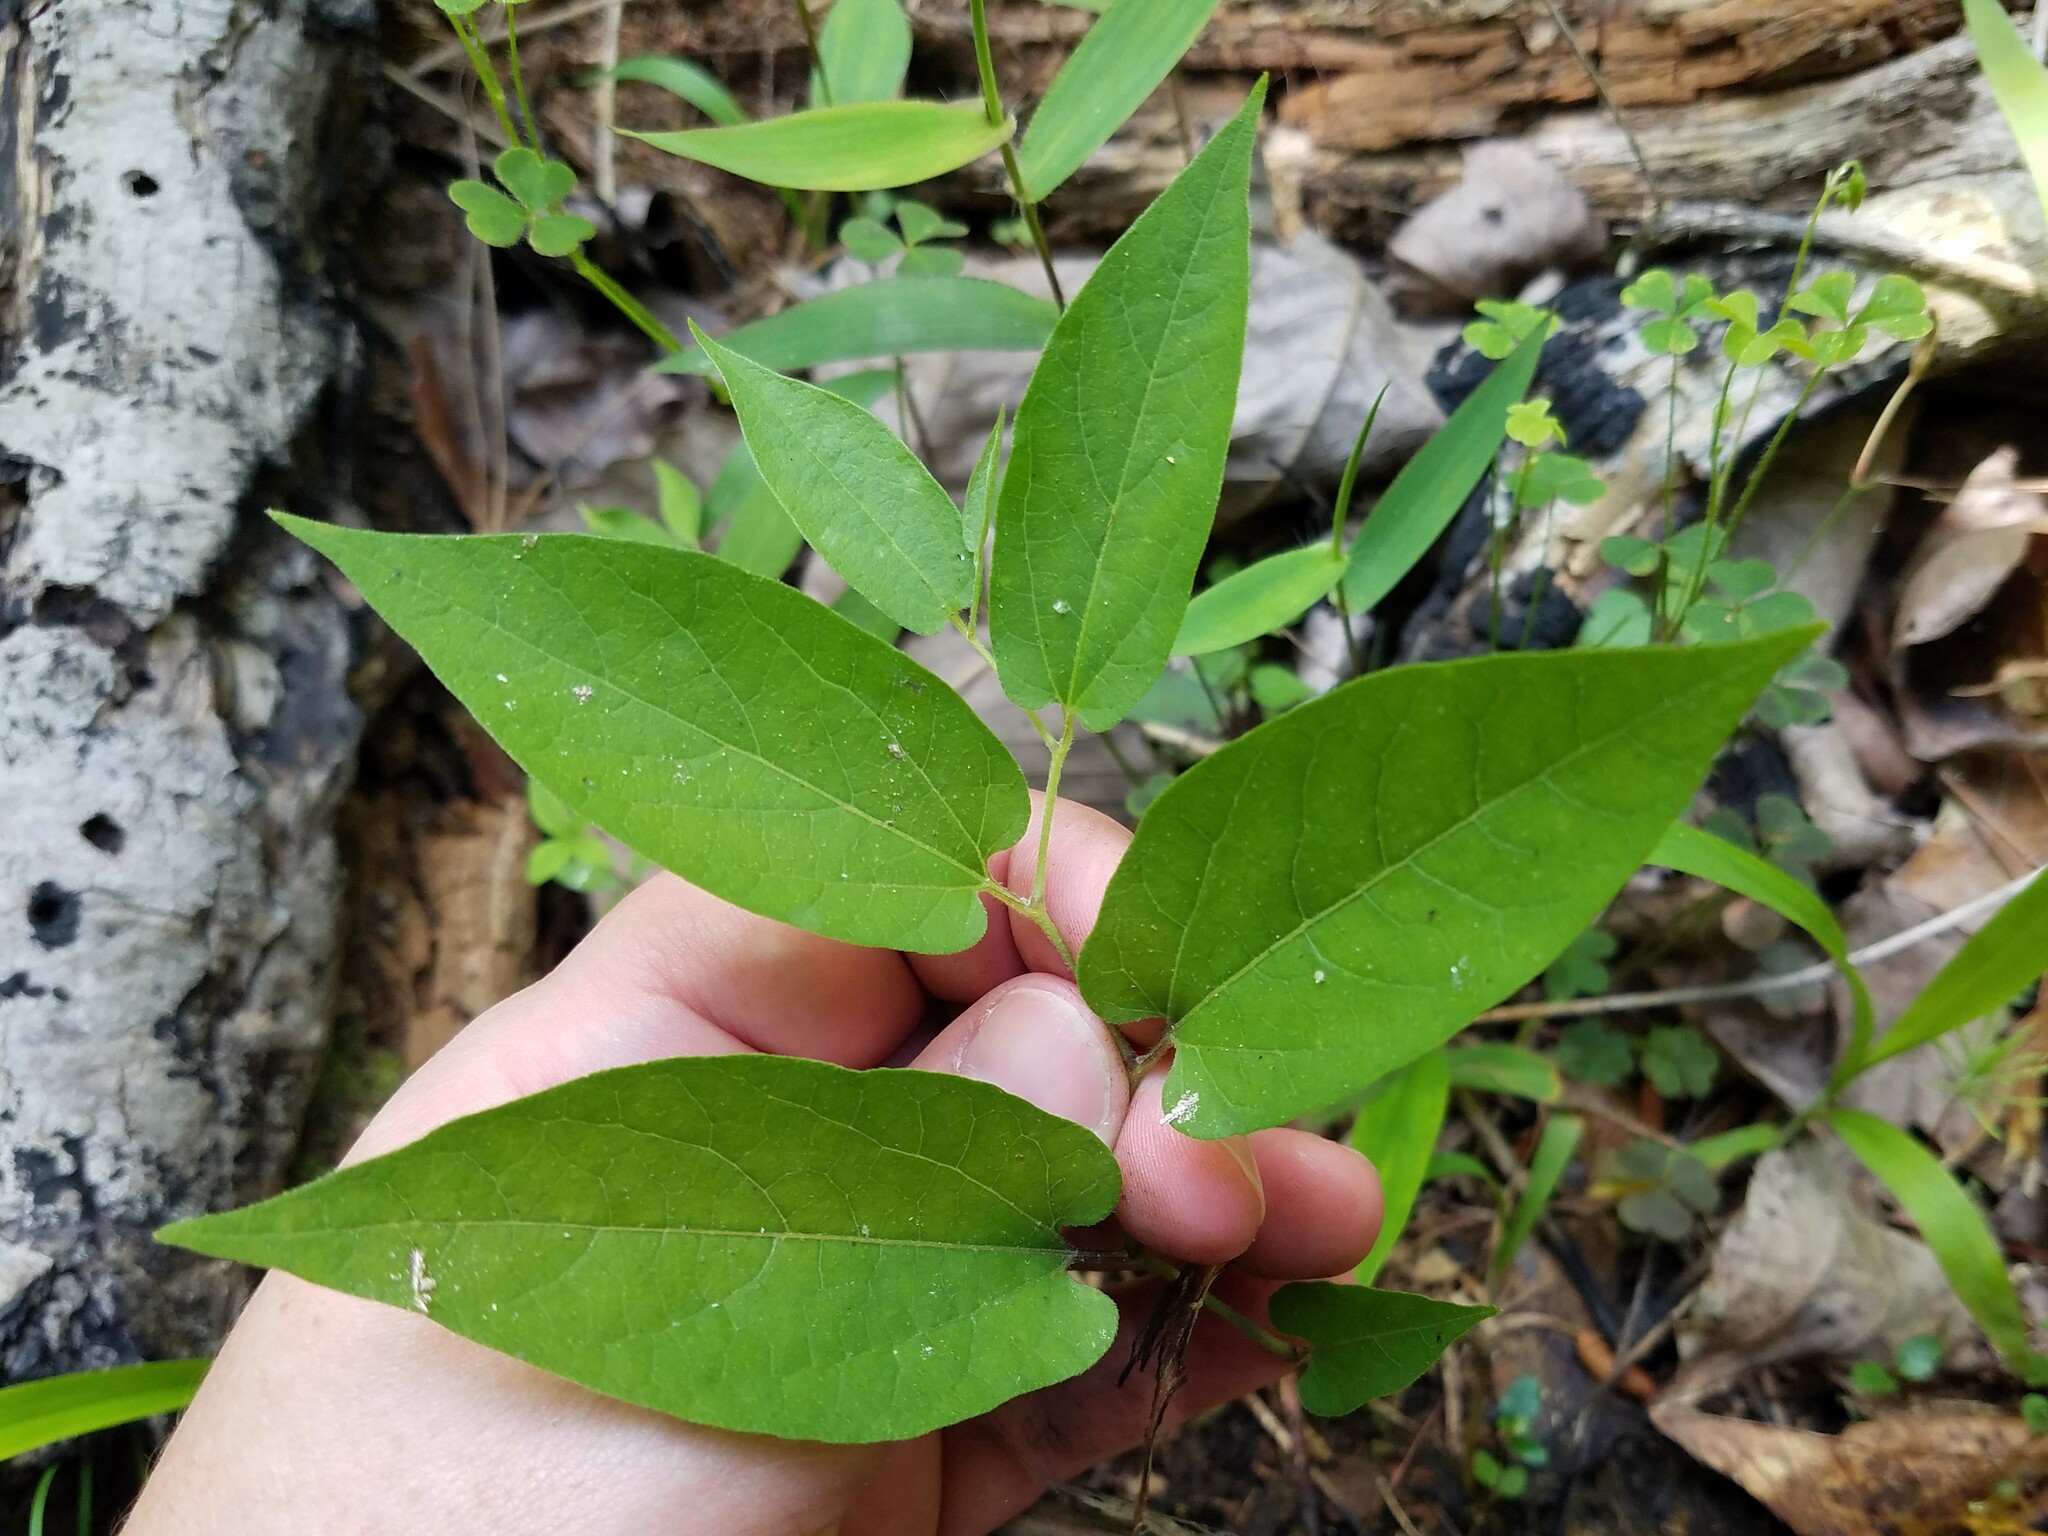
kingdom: Plantae
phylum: Tracheophyta
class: Magnoliopsida
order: Piperales
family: Aristolochiaceae
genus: Endodeca
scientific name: Endodeca serpentaria
